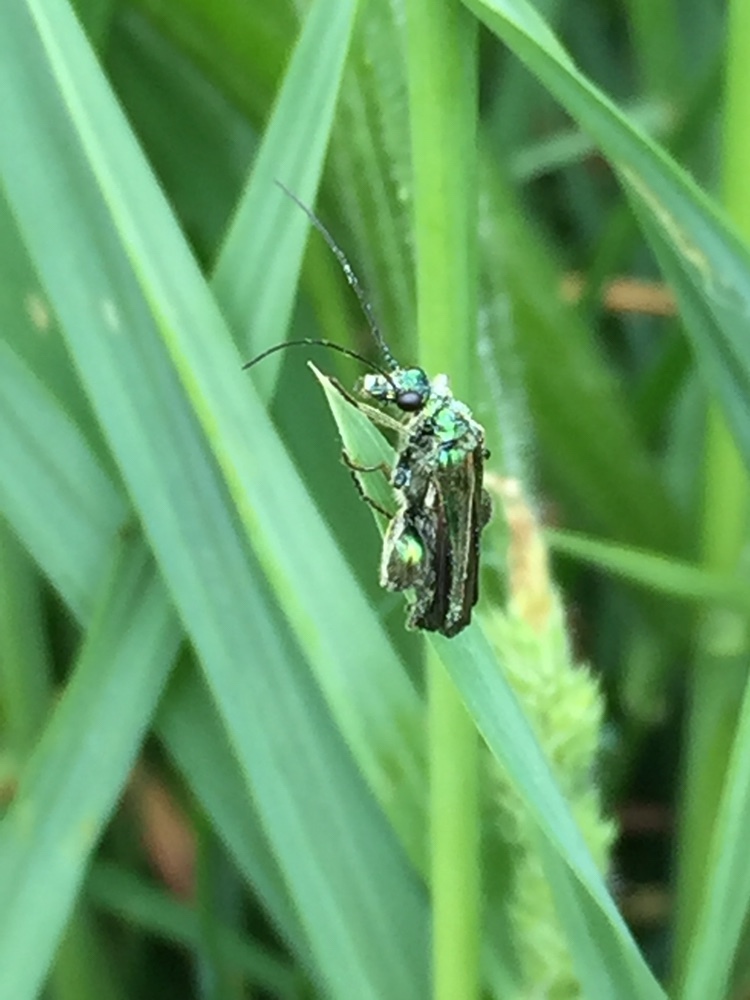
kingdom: Animalia
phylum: Arthropoda
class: Insecta
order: Coleoptera
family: Oedemeridae
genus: Oedemera
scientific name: Oedemera nobilis
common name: Swollen-thighed beetle
